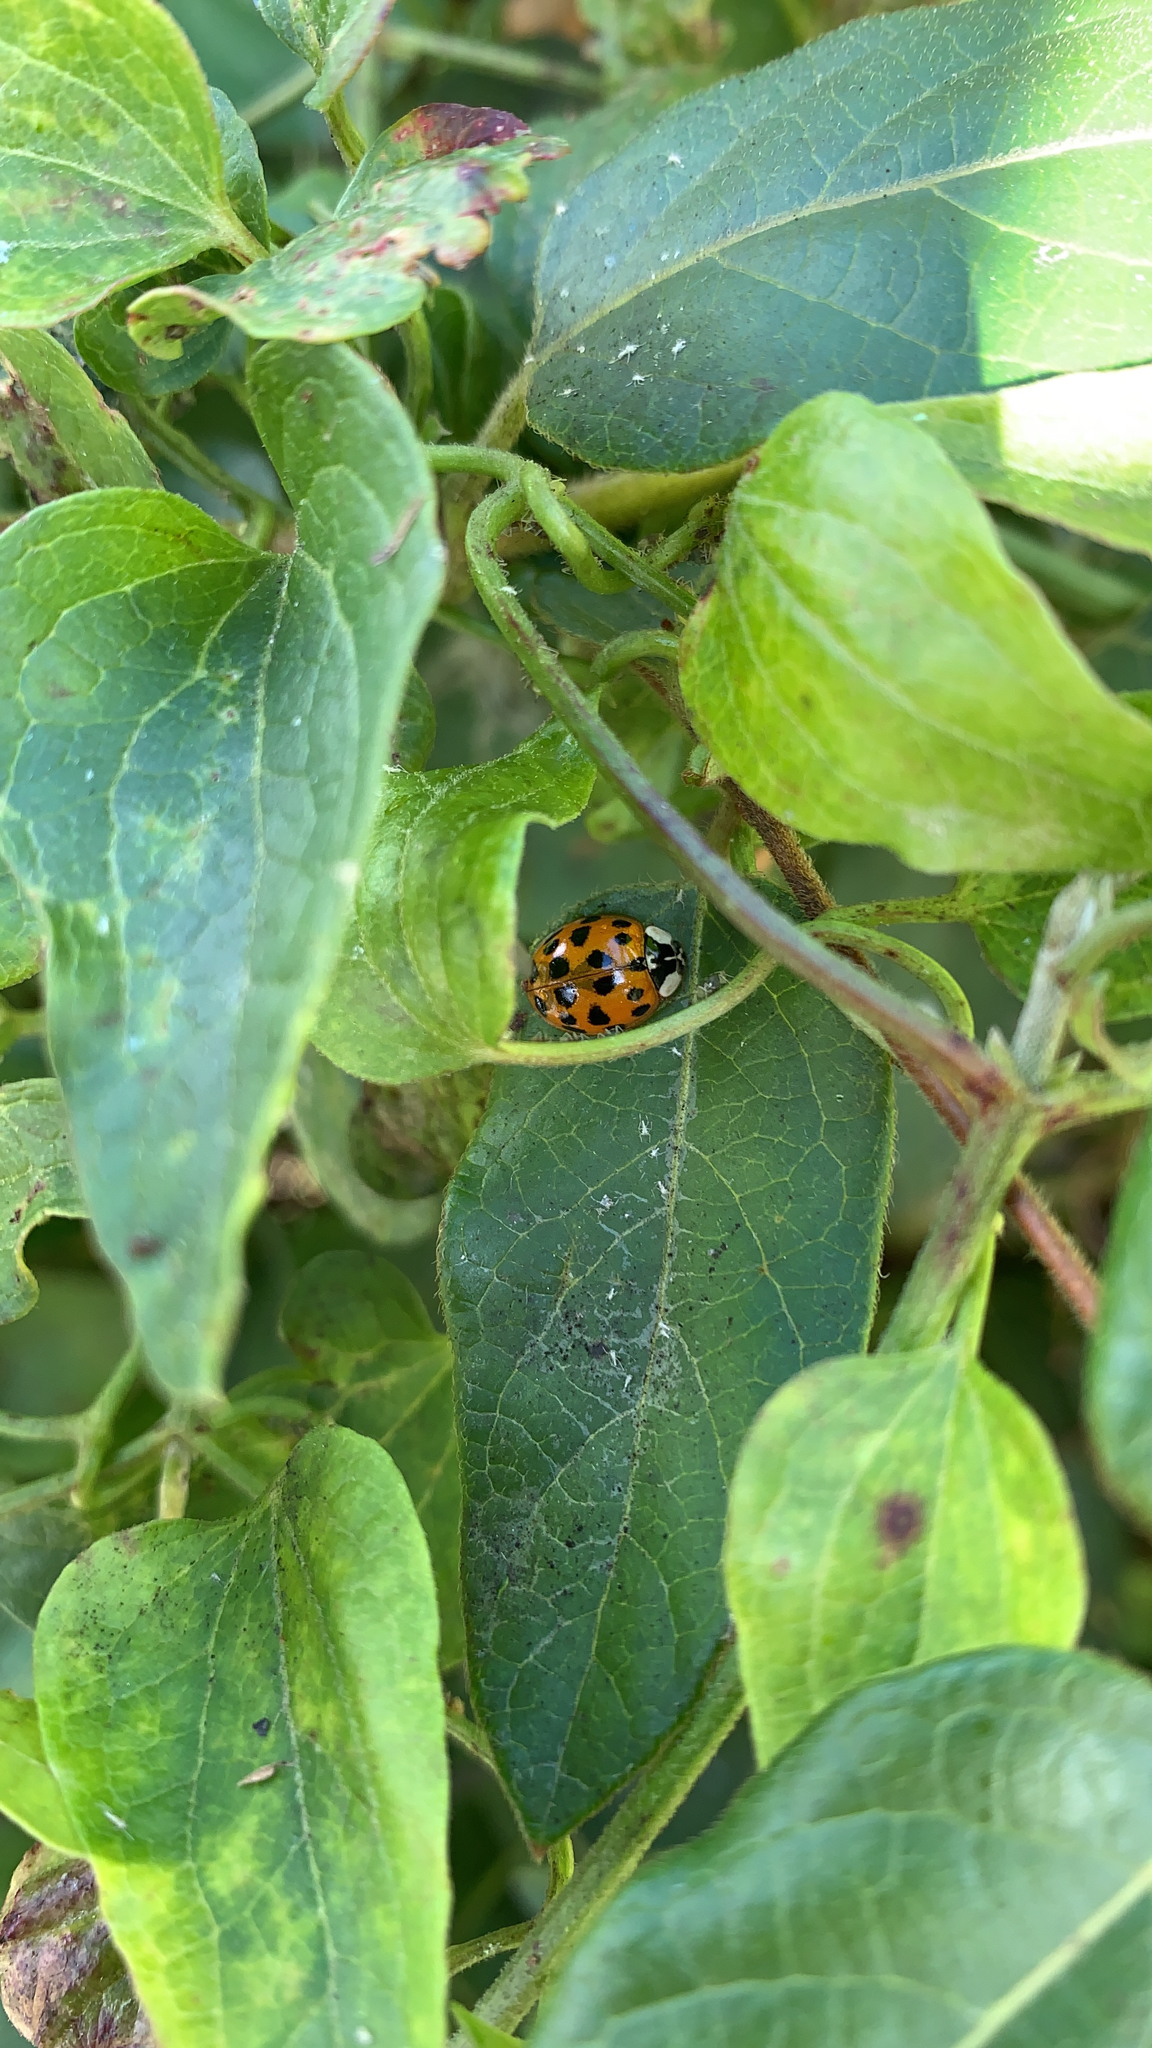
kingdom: Animalia
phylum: Arthropoda
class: Insecta
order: Coleoptera
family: Coccinellidae
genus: Harmonia
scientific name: Harmonia axyridis
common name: Harlequin ladybird
